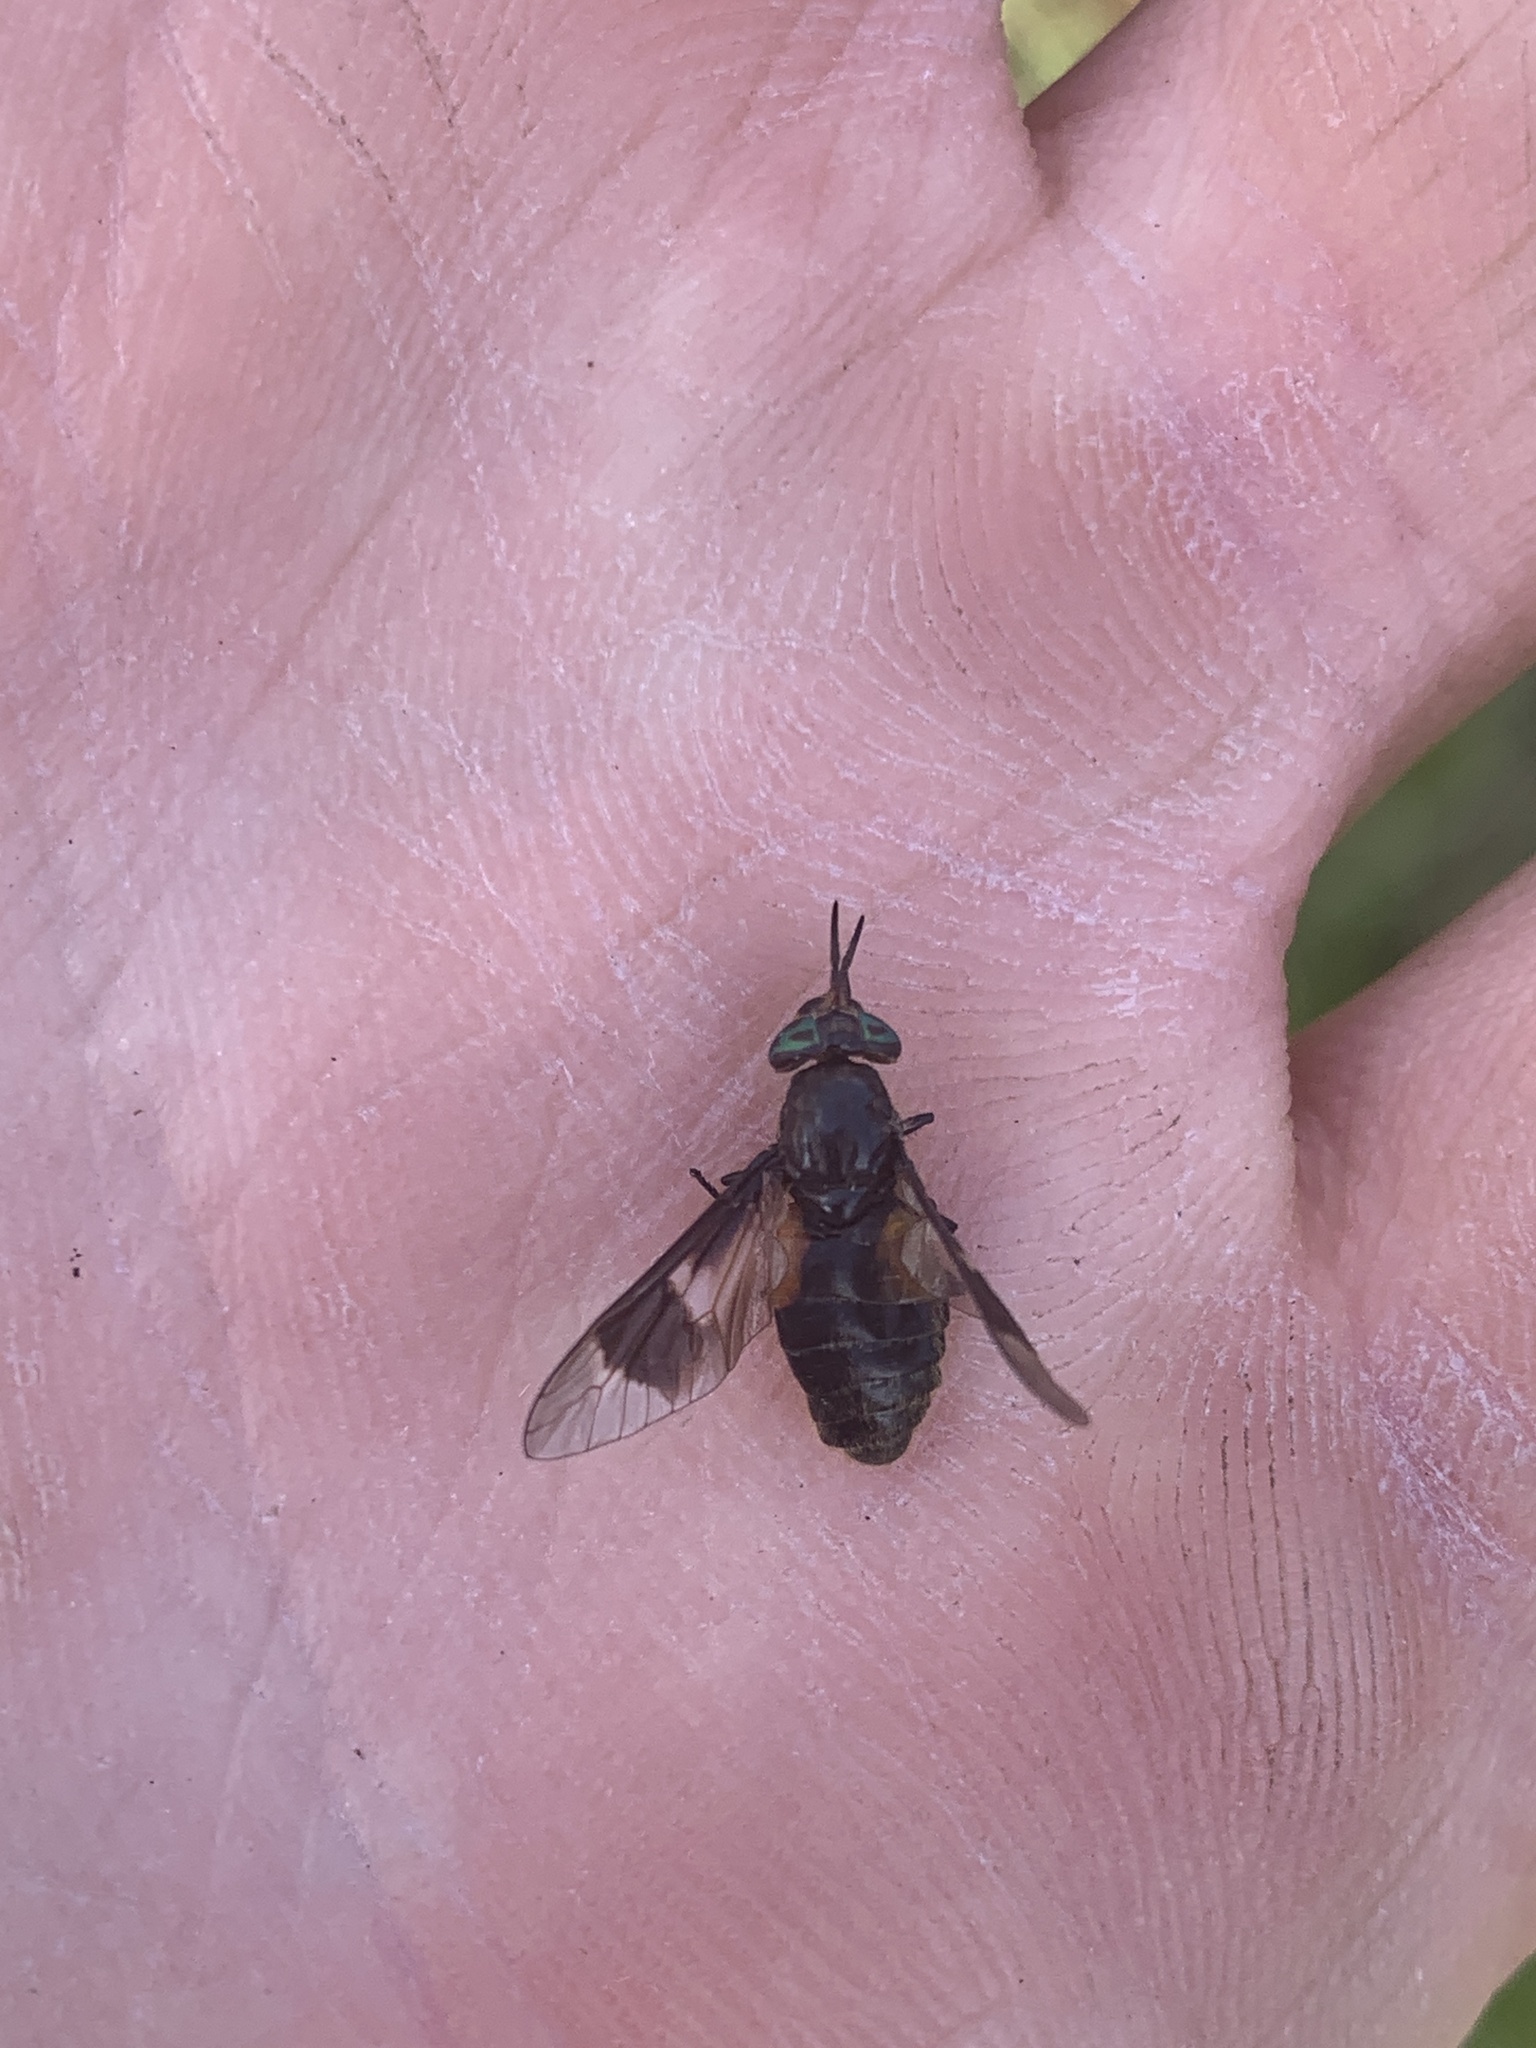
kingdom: Animalia
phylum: Arthropoda
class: Insecta
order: Diptera
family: Tabanidae
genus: Chrysops
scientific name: Chrysops dawsoni
